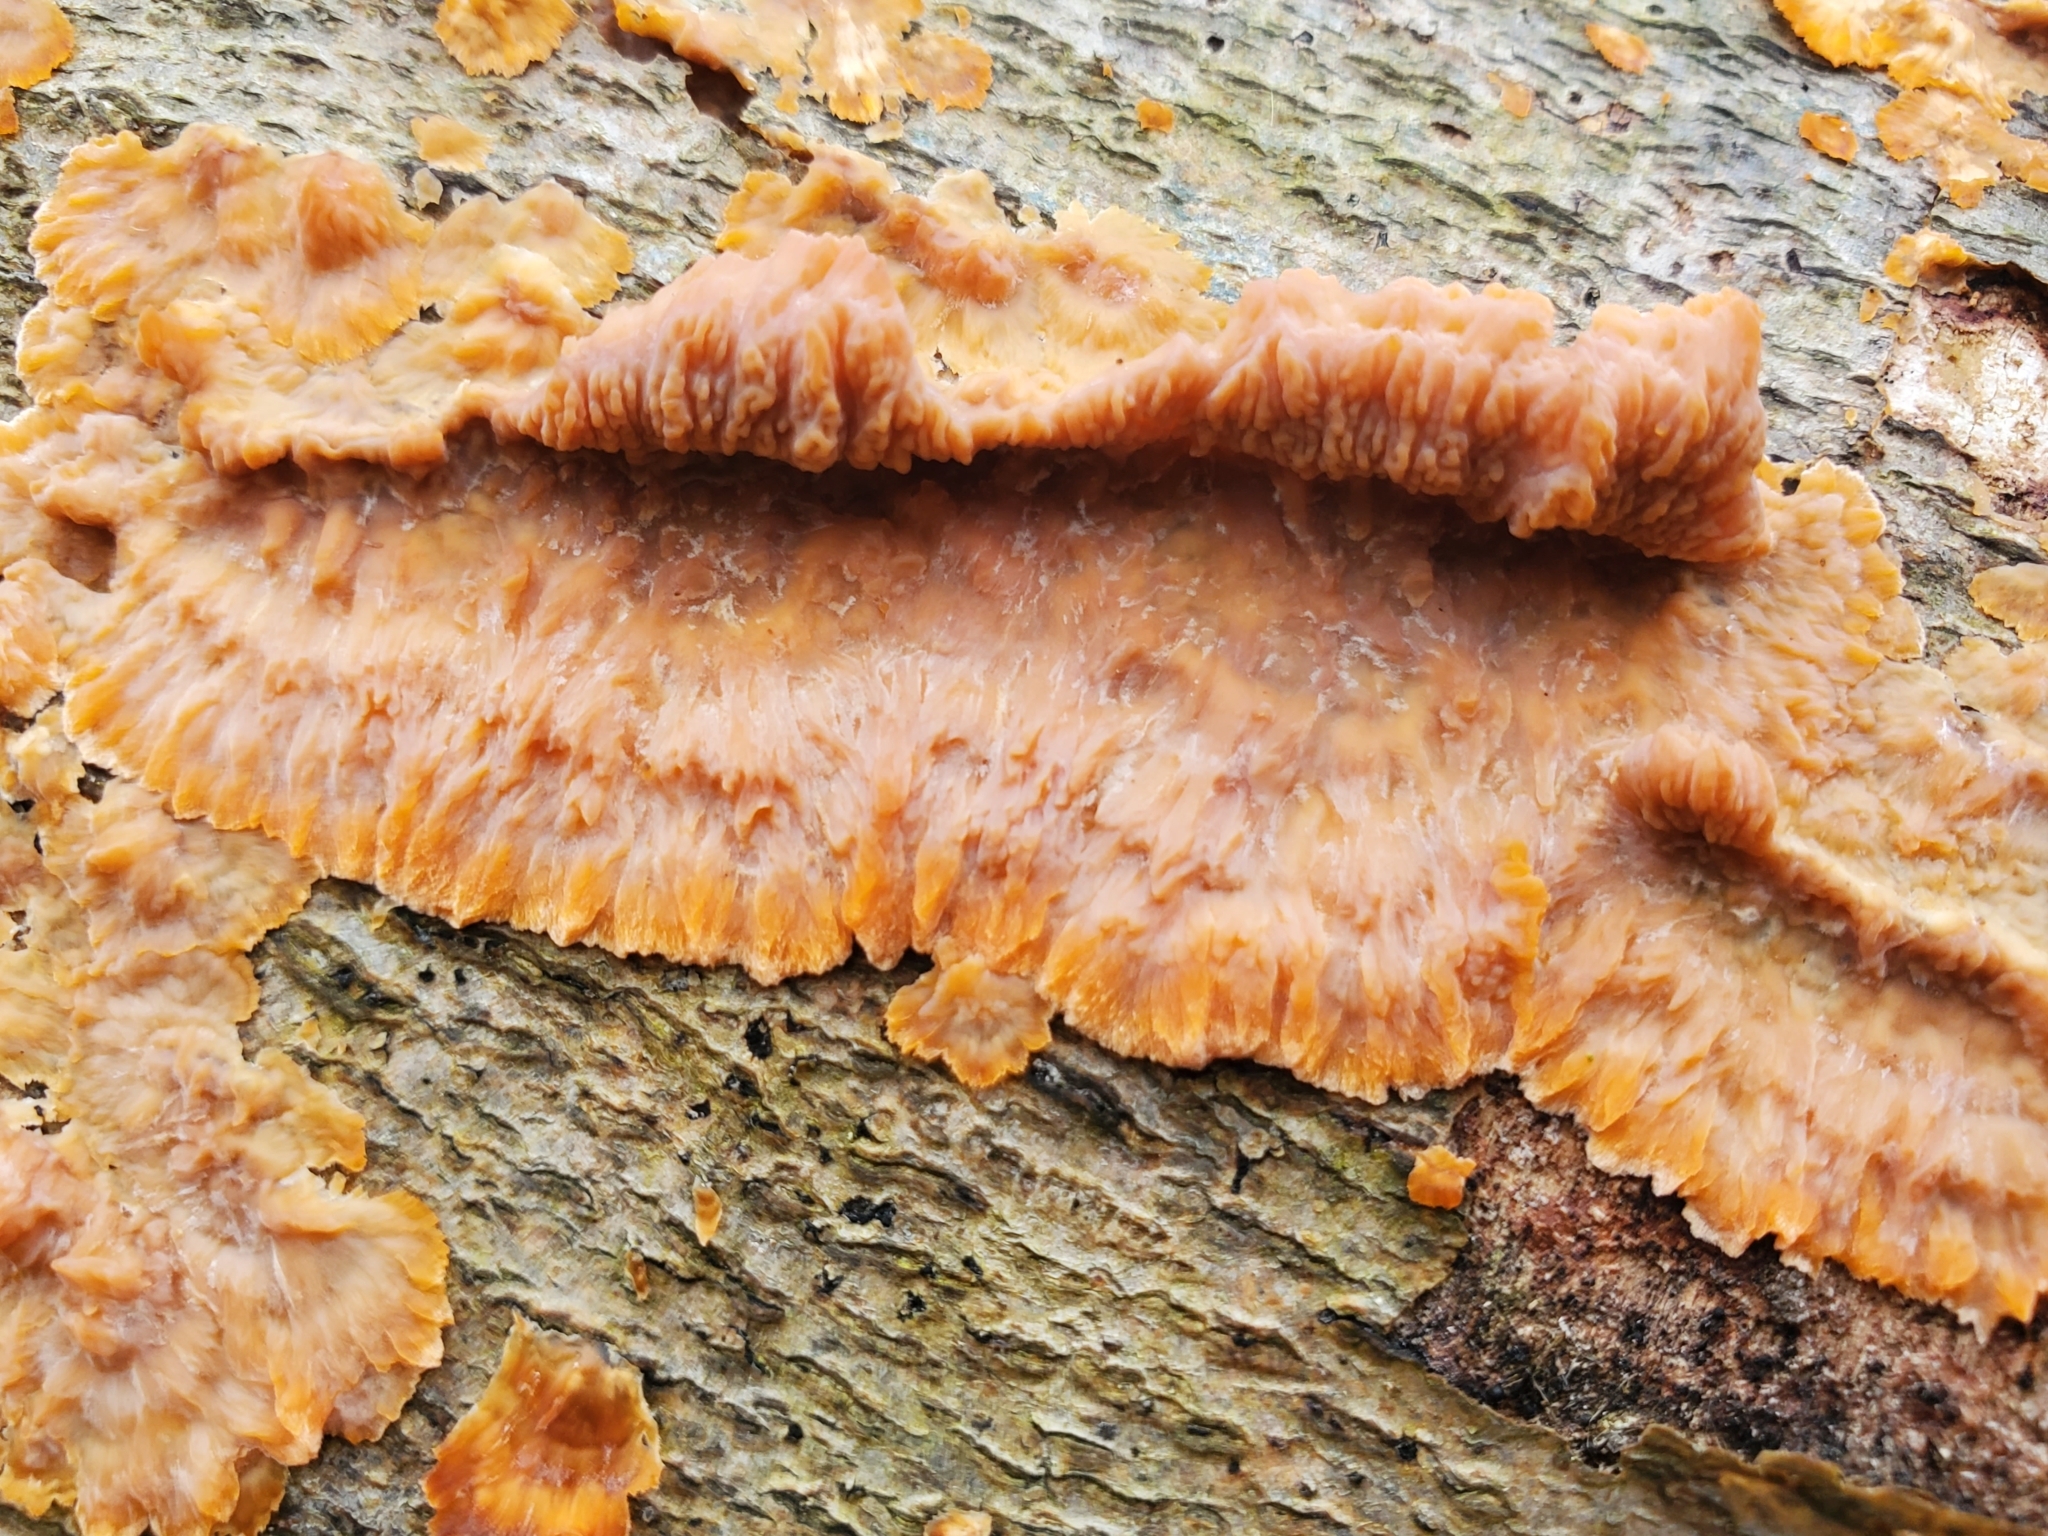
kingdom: Fungi
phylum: Basidiomycota
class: Agaricomycetes
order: Polyporales
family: Meruliaceae
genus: Phlebia
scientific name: Phlebia radiata
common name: Wrinkled crust
